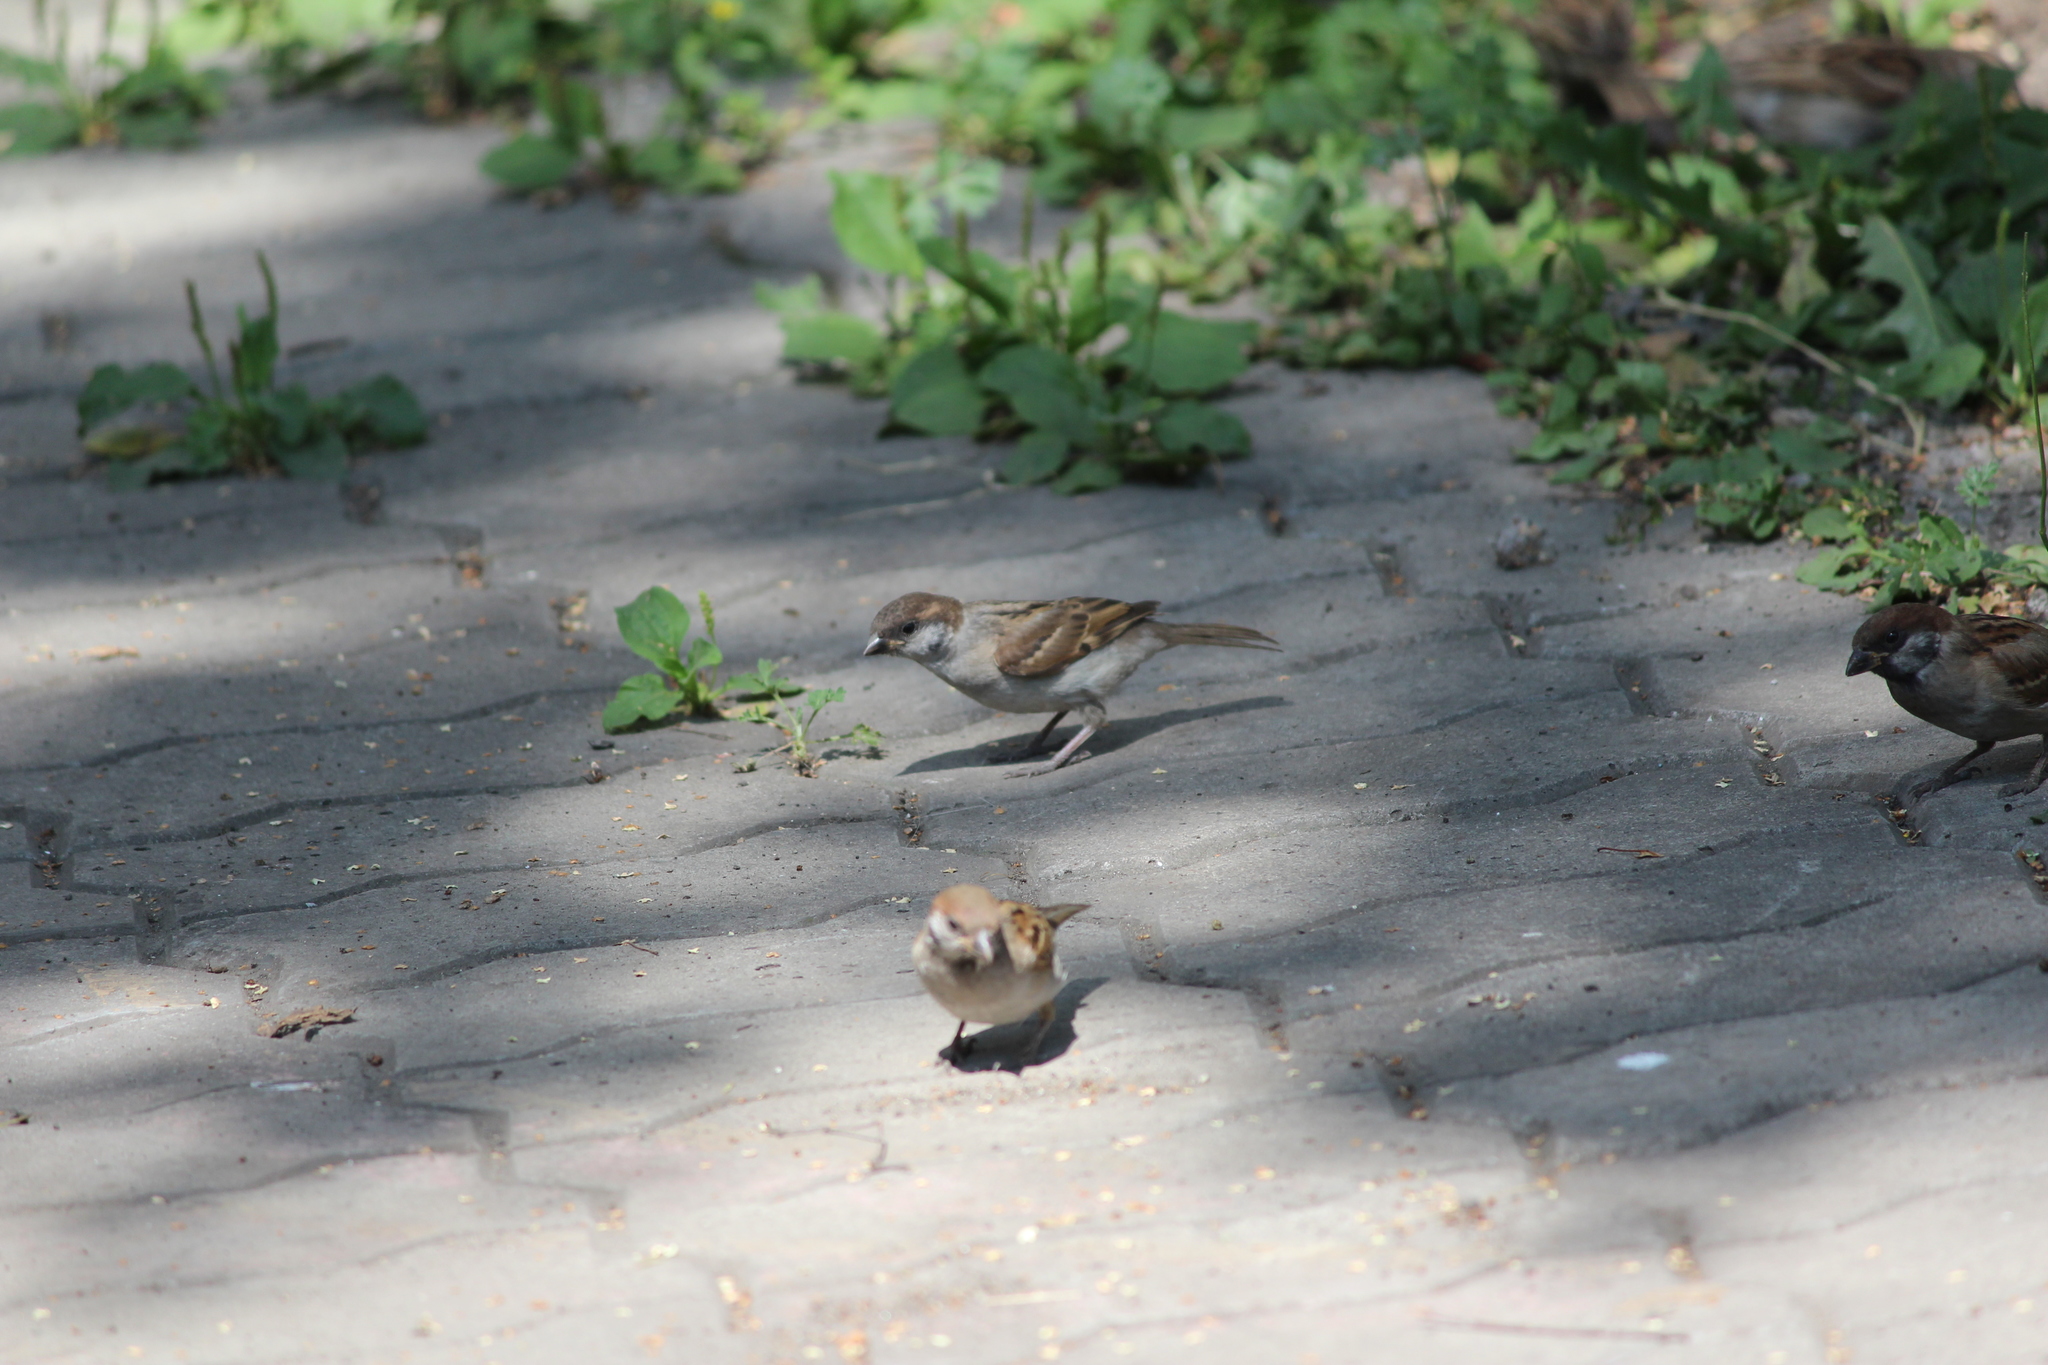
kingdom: Animalia
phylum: Chordata
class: Aves
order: Passeriformes
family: Passeridae
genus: Passer
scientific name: Passer montanus
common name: Eurasian tree sparrow
